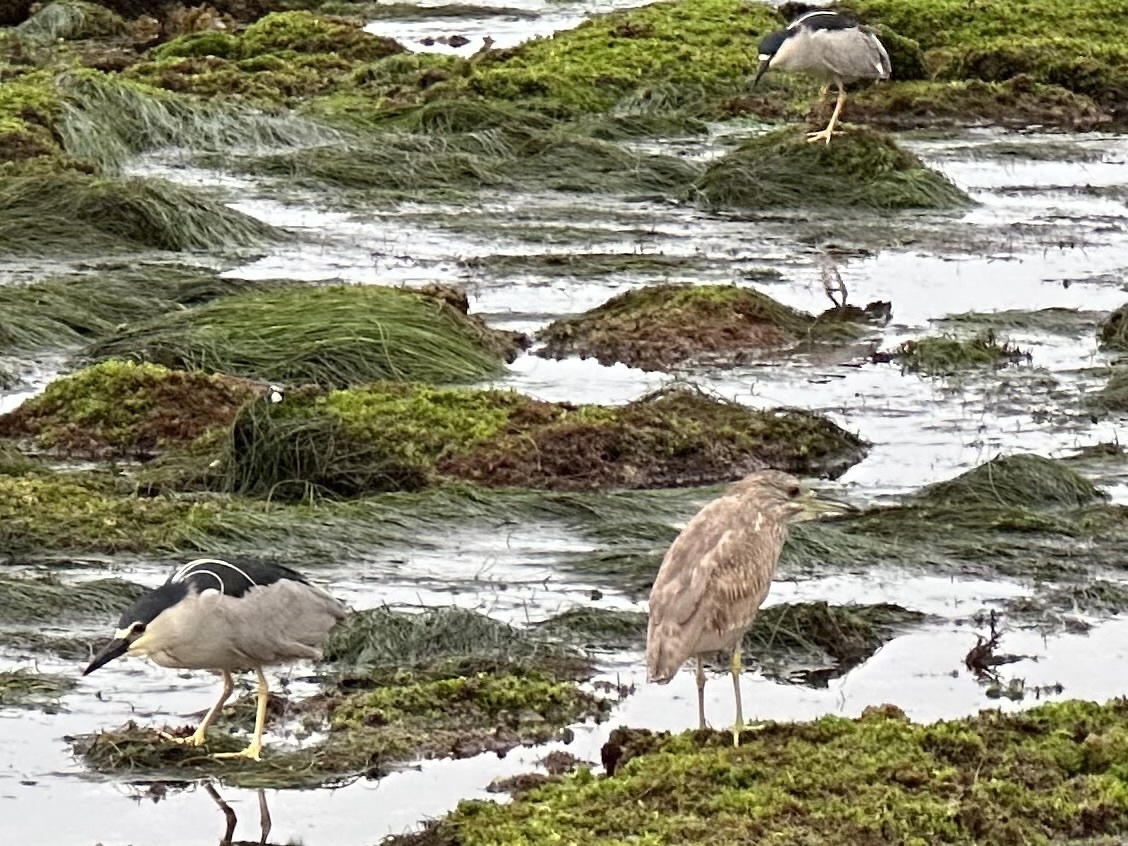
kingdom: Animalia
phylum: Chordata
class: Aves
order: Pelecaniformes
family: Ardeidae
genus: Nycticorax
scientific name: Nycticorax nycticorax
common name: Black-crowned night heron
